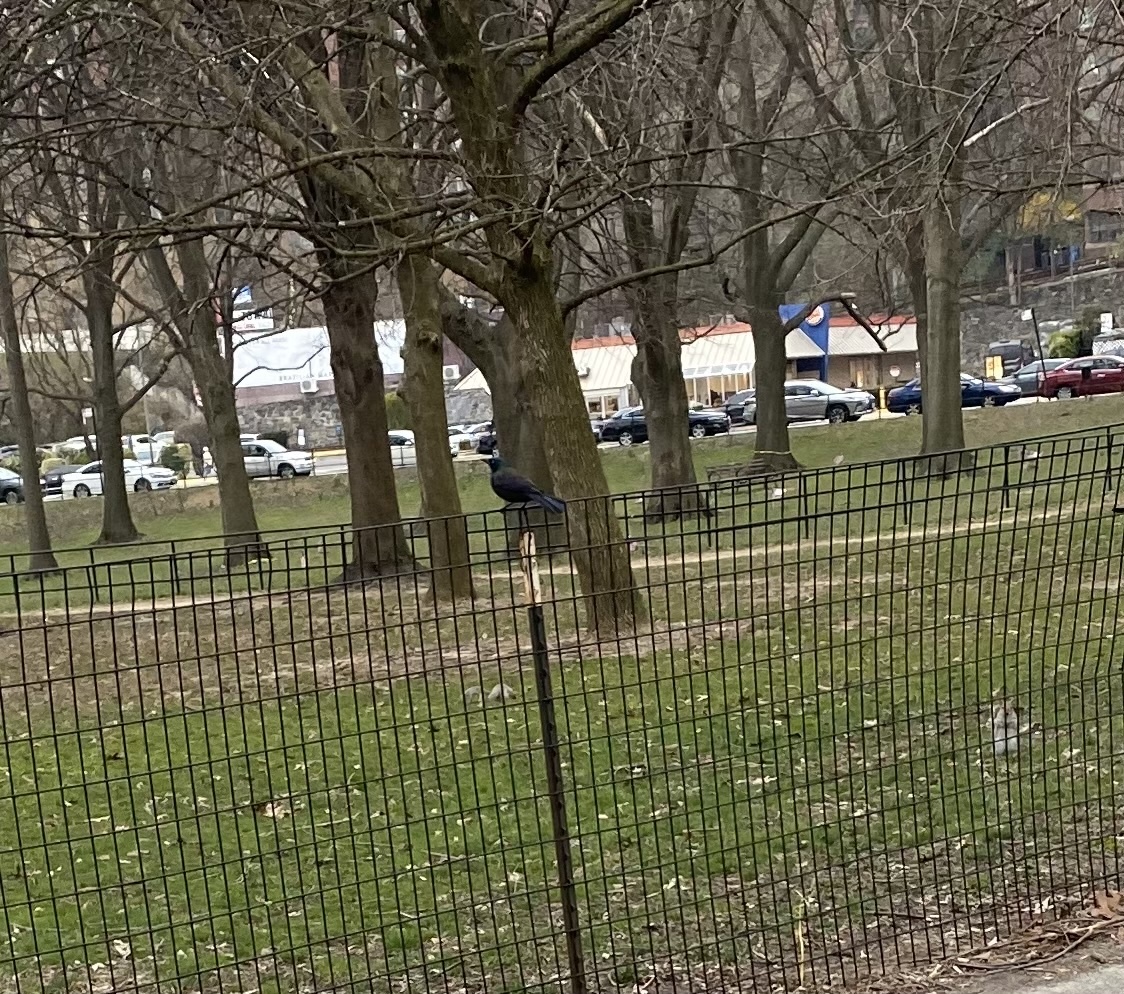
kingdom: Animalia
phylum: Chordata
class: Aves
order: Passeriformes
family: Icteridae
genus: Quiscalus
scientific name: Quiscalus quiscula
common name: Common grackle
